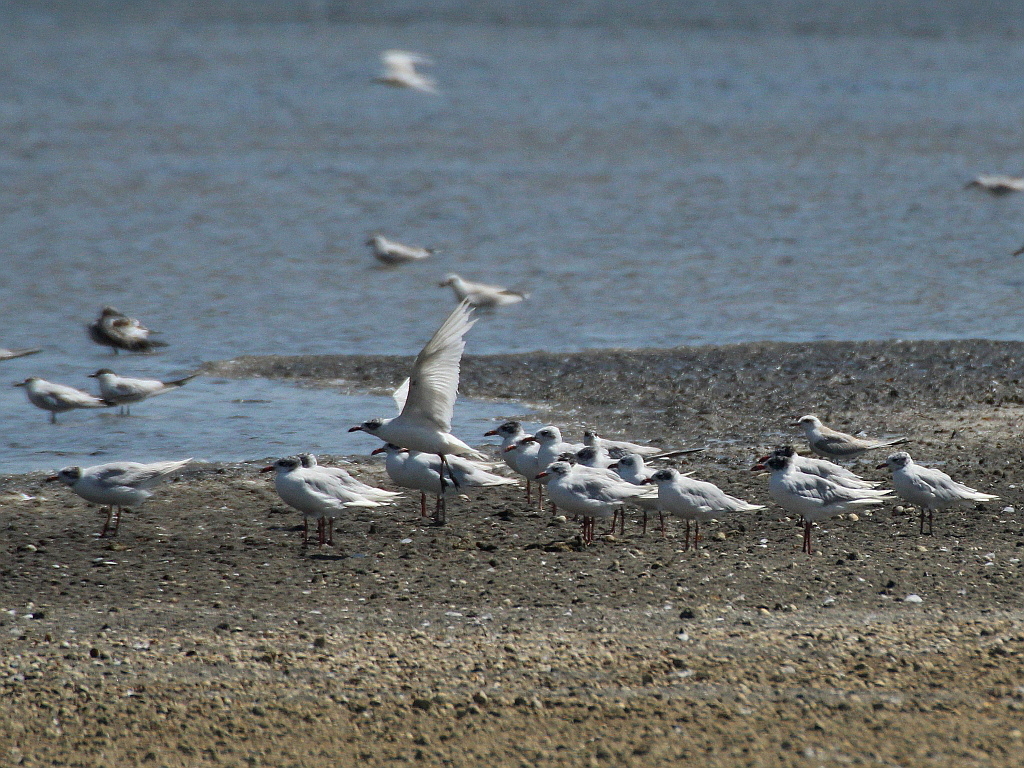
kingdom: Animalia
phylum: Chordata
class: Aves
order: Charadriiformes
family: Laridae
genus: Ichthyaetus
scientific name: Ichthyaetus melanocephalus
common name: Mediterranean gull
